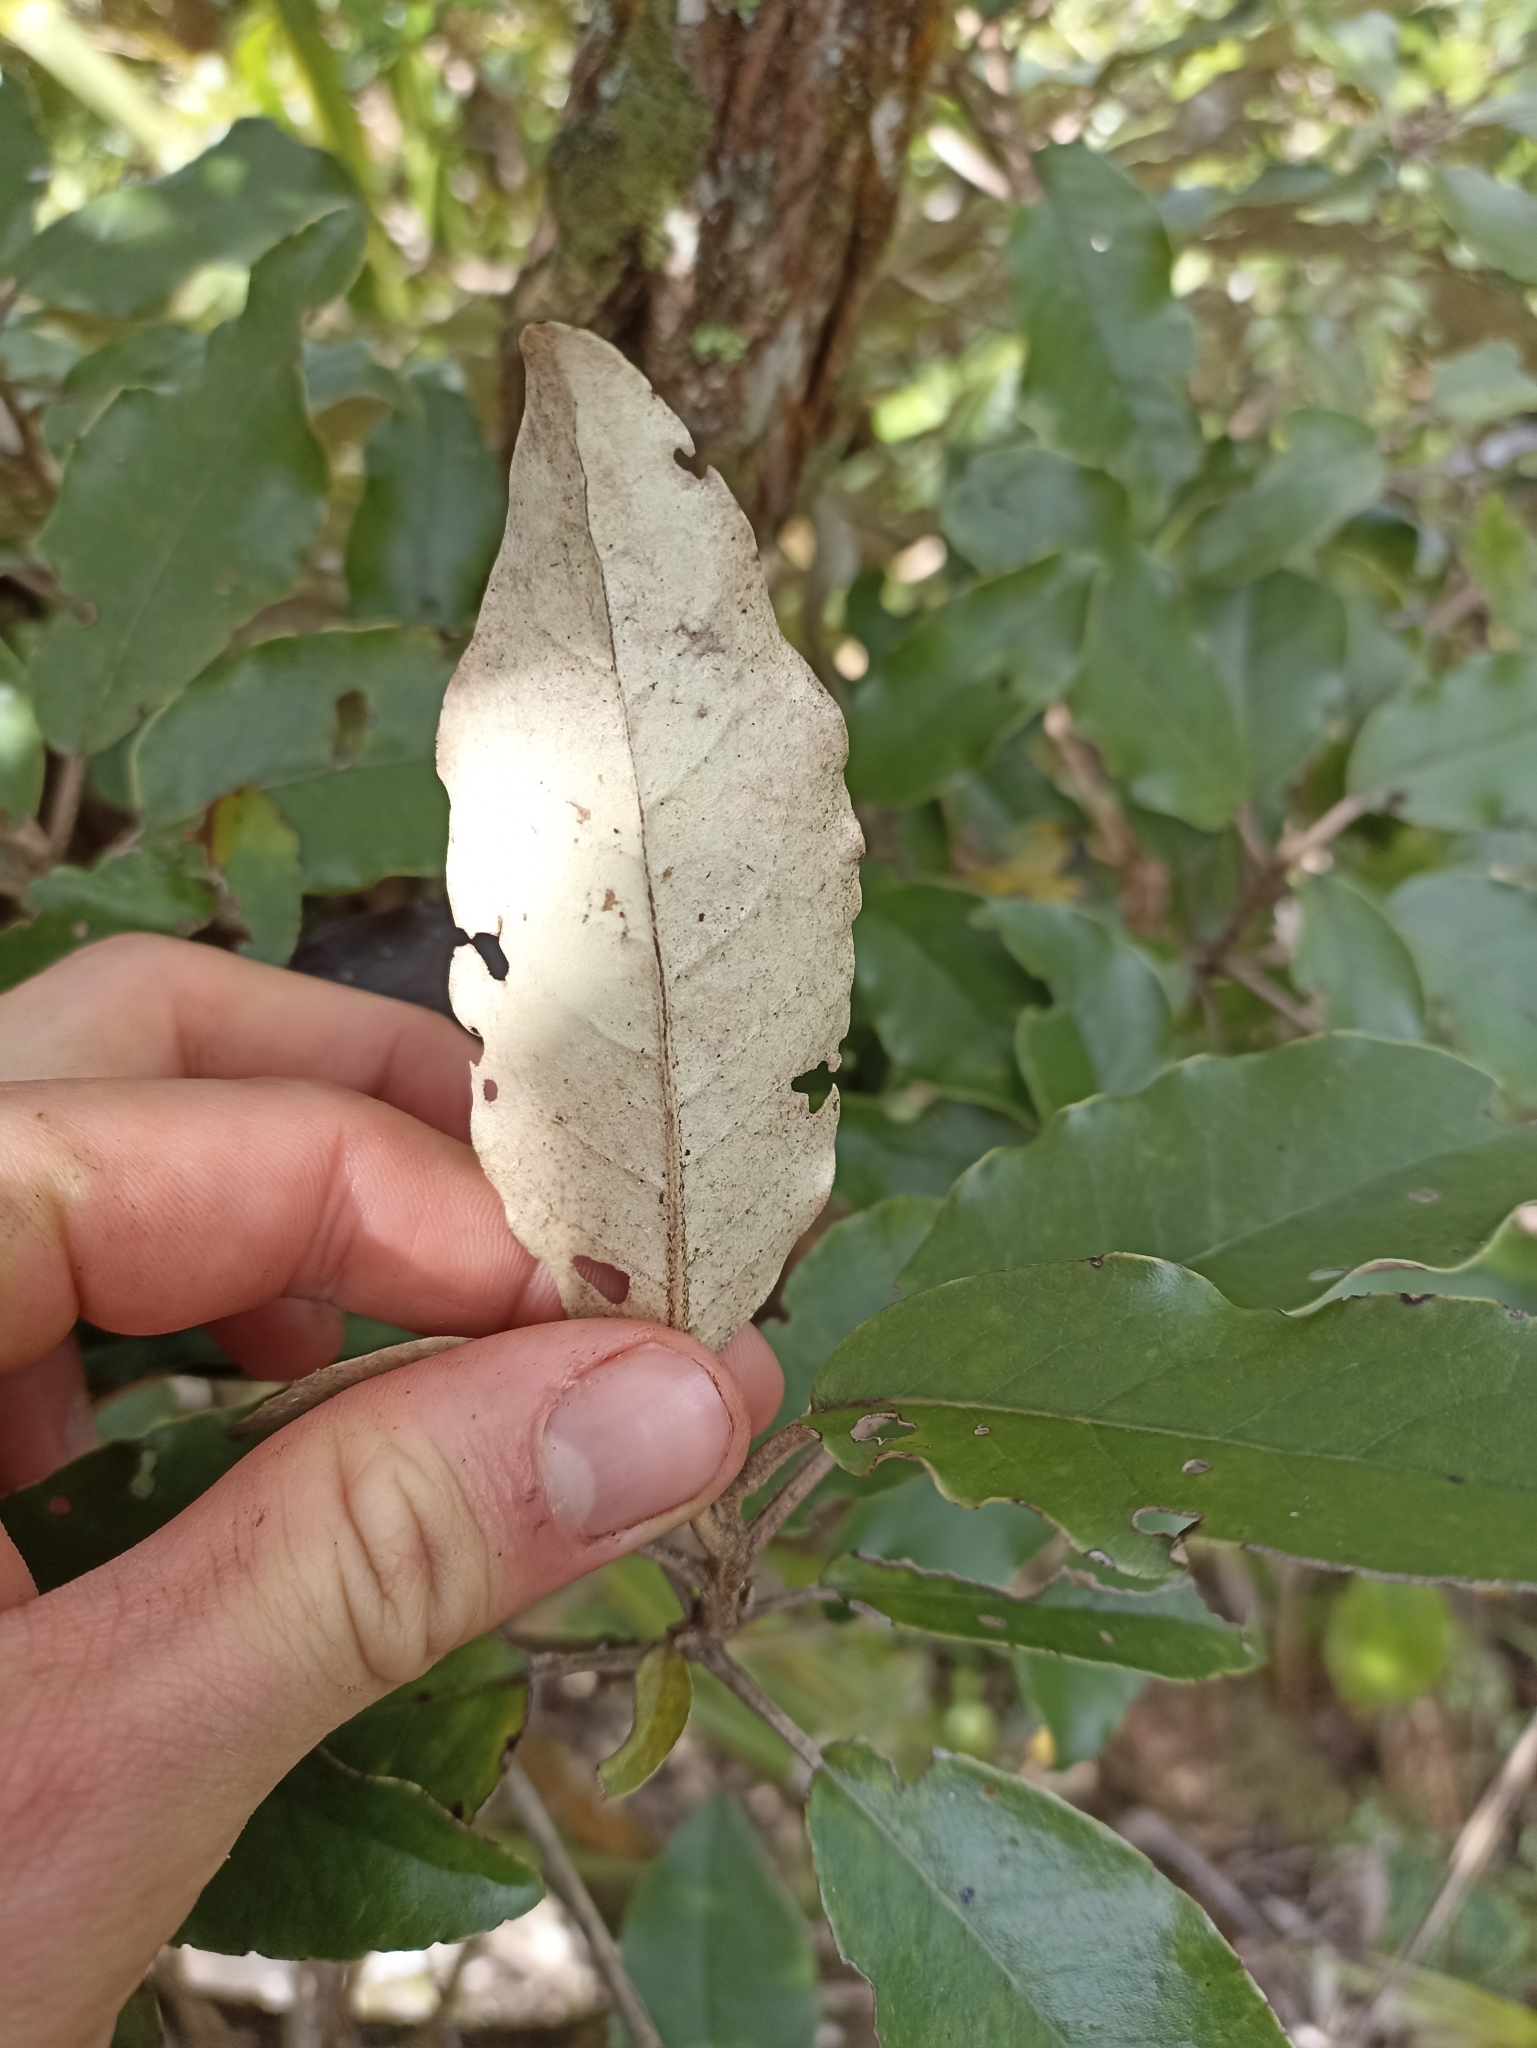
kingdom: Plantae
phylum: Tracheophyta
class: Magnoliopsida
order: Asterales
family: Asteraceae
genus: Olearia
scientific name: Olearia albida
